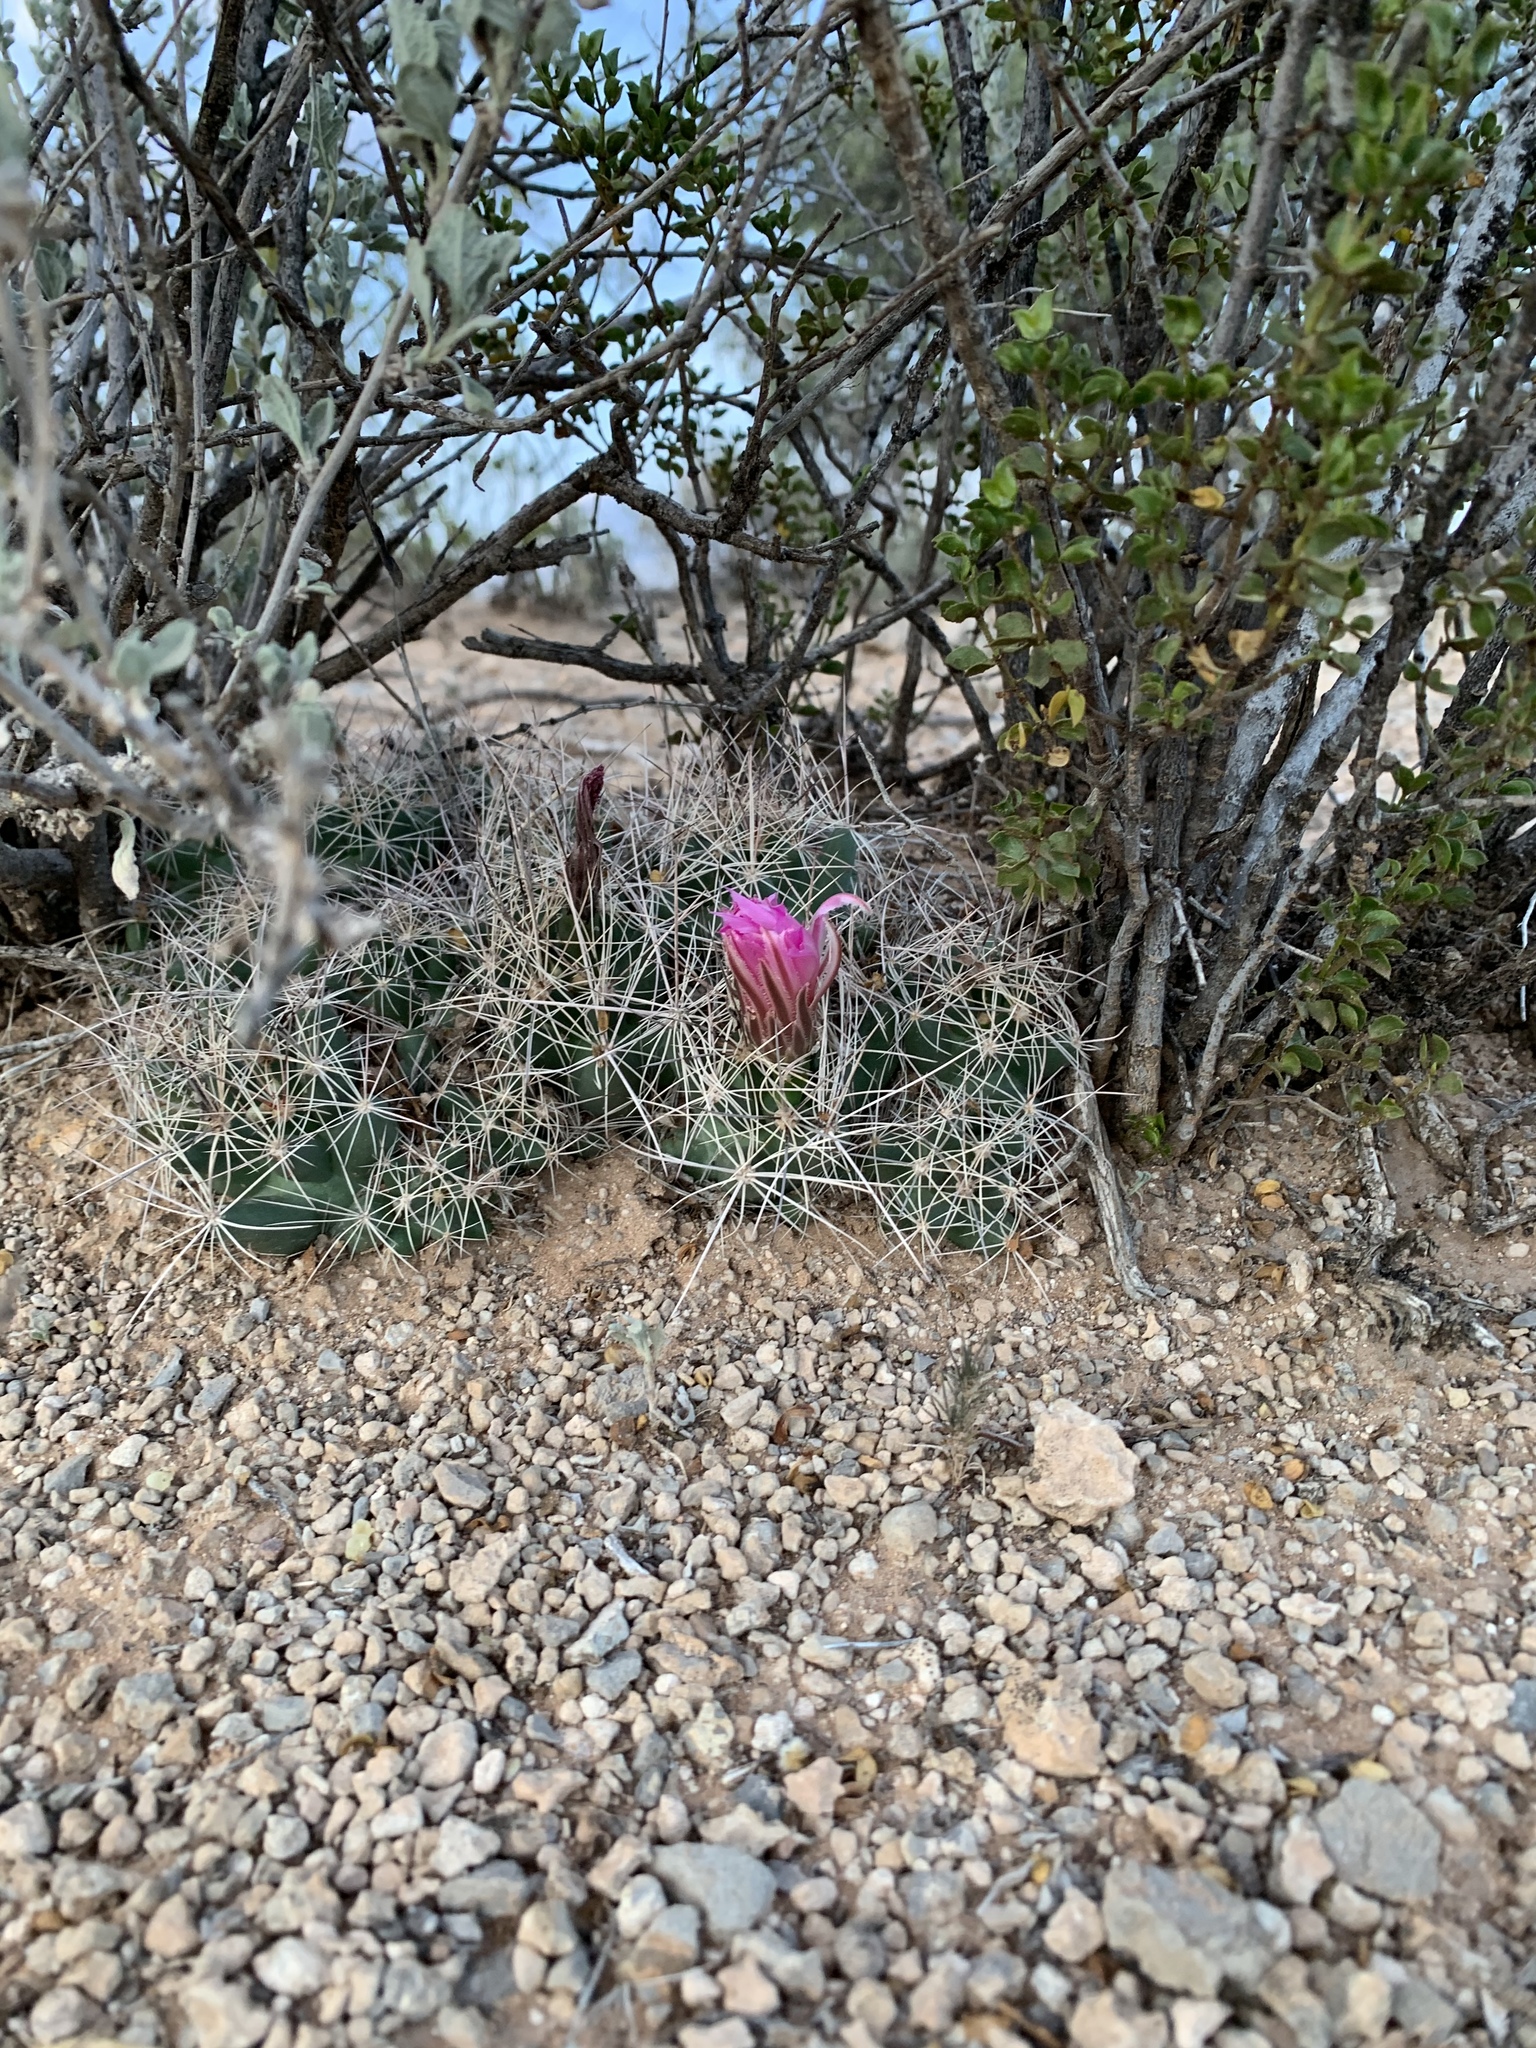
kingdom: Plantae
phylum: Tracheophyta
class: Magnoliopsida
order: Caryophyllales
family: Cactaceae
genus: Coryphantha
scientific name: Coryphantha macromeris
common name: Nipple beehive cactus
